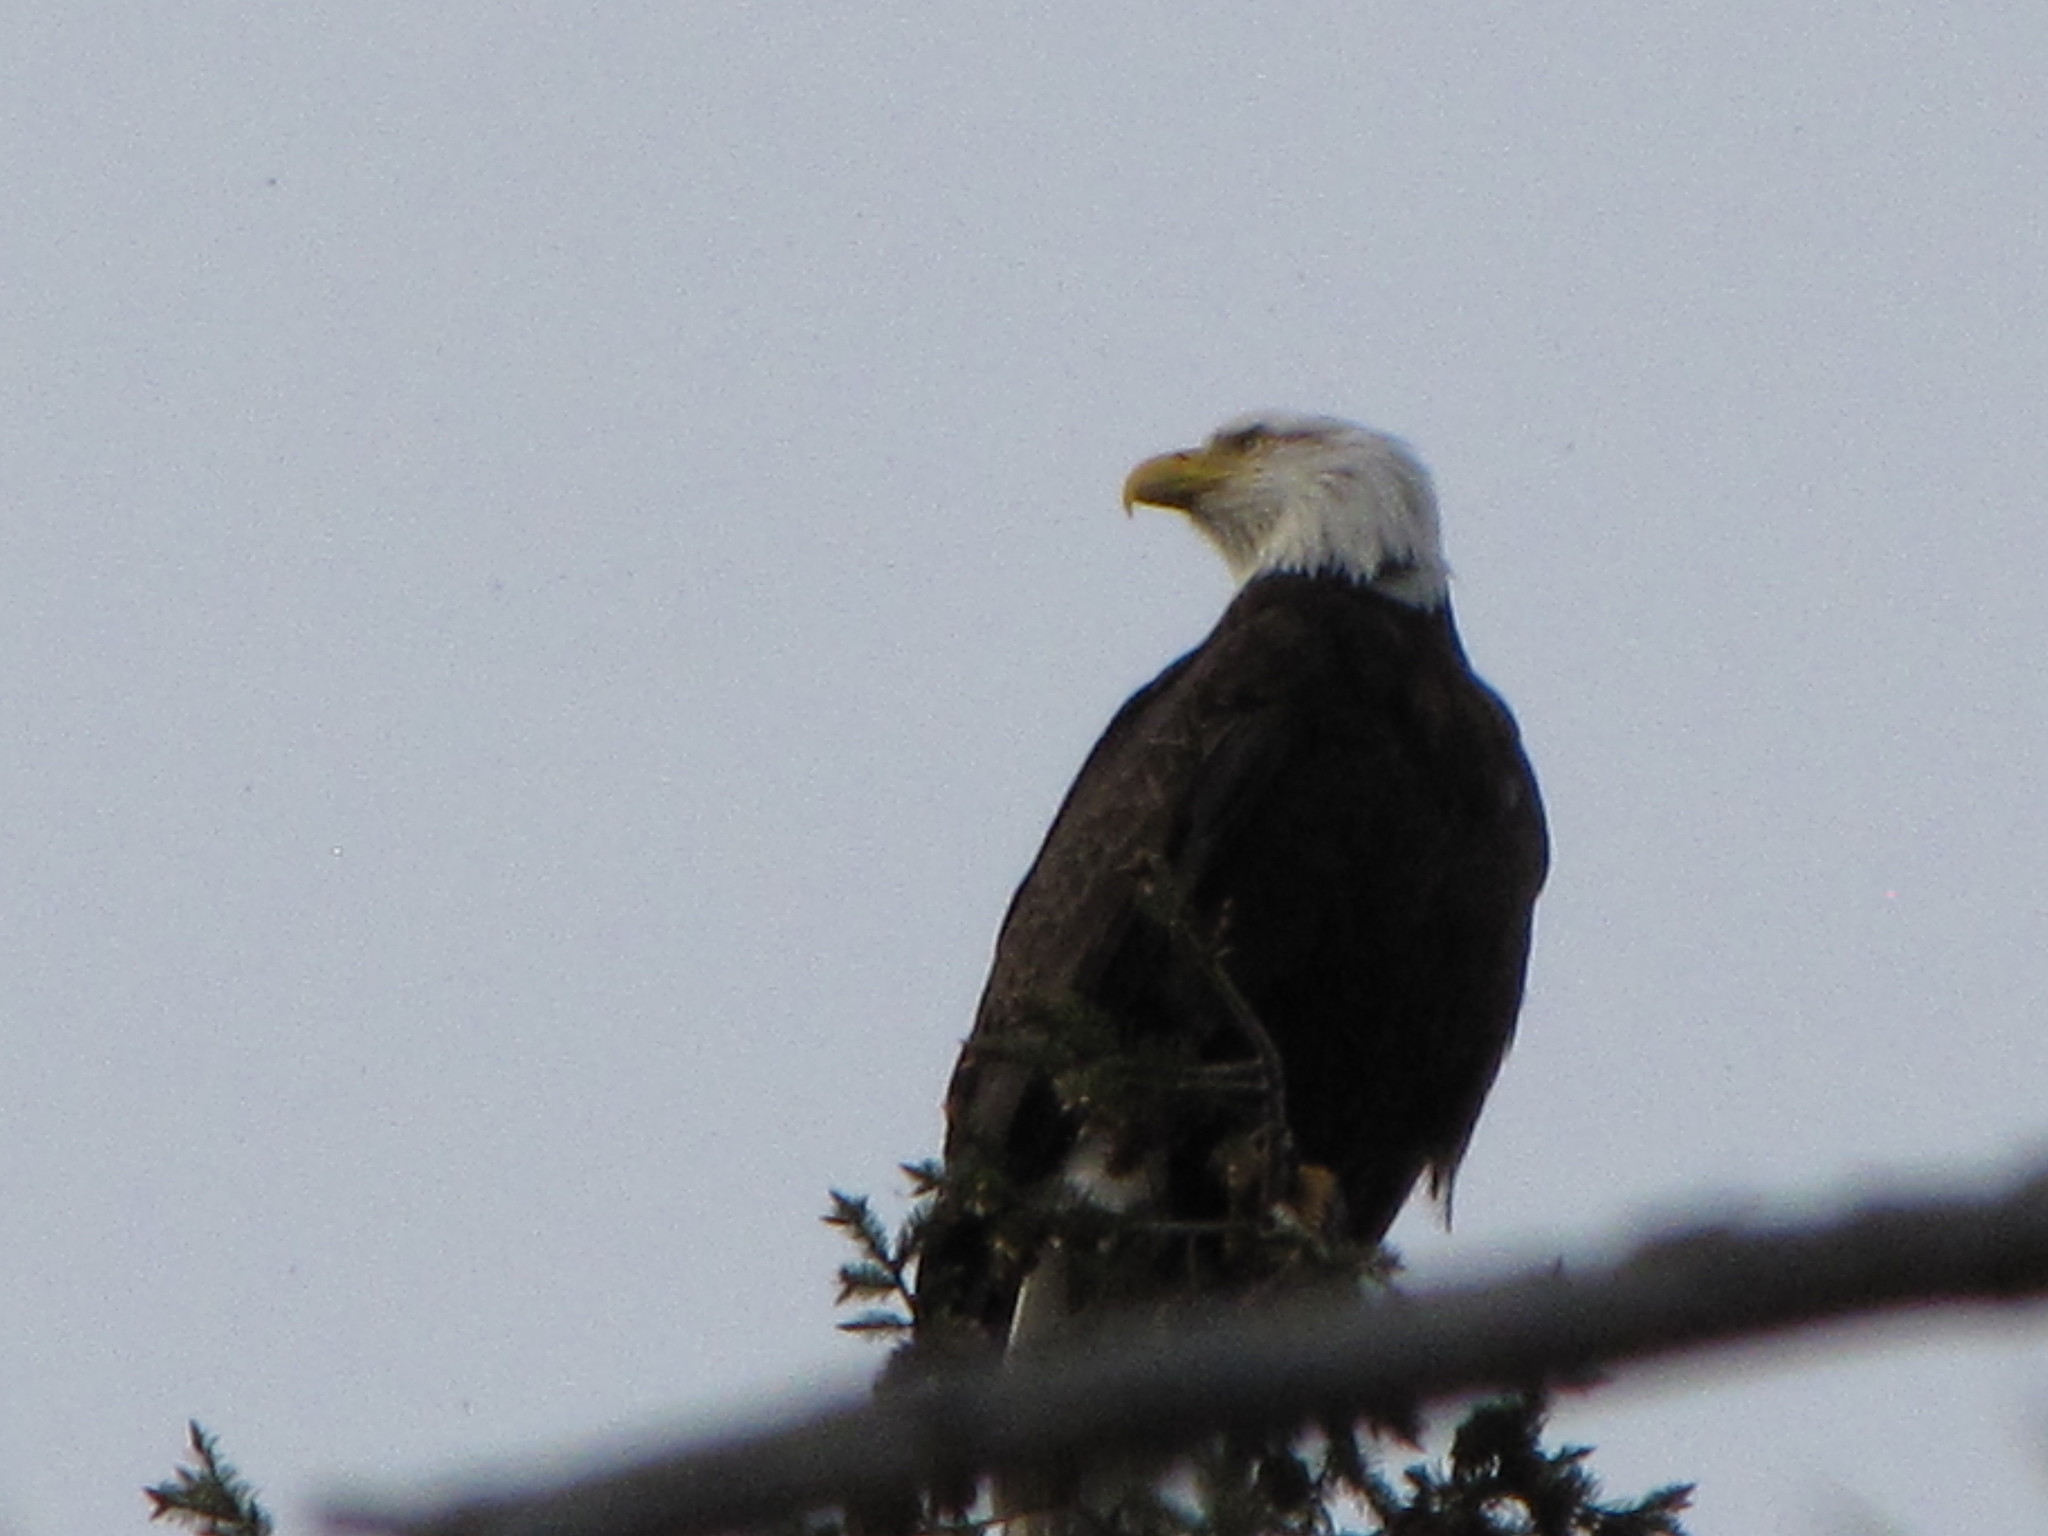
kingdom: Animalia
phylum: Chordata
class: Aves
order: Accipitriformes
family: Accipitridae
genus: Haliaeetus
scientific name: Haliaeetus leucocephalus
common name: Bald eagle
